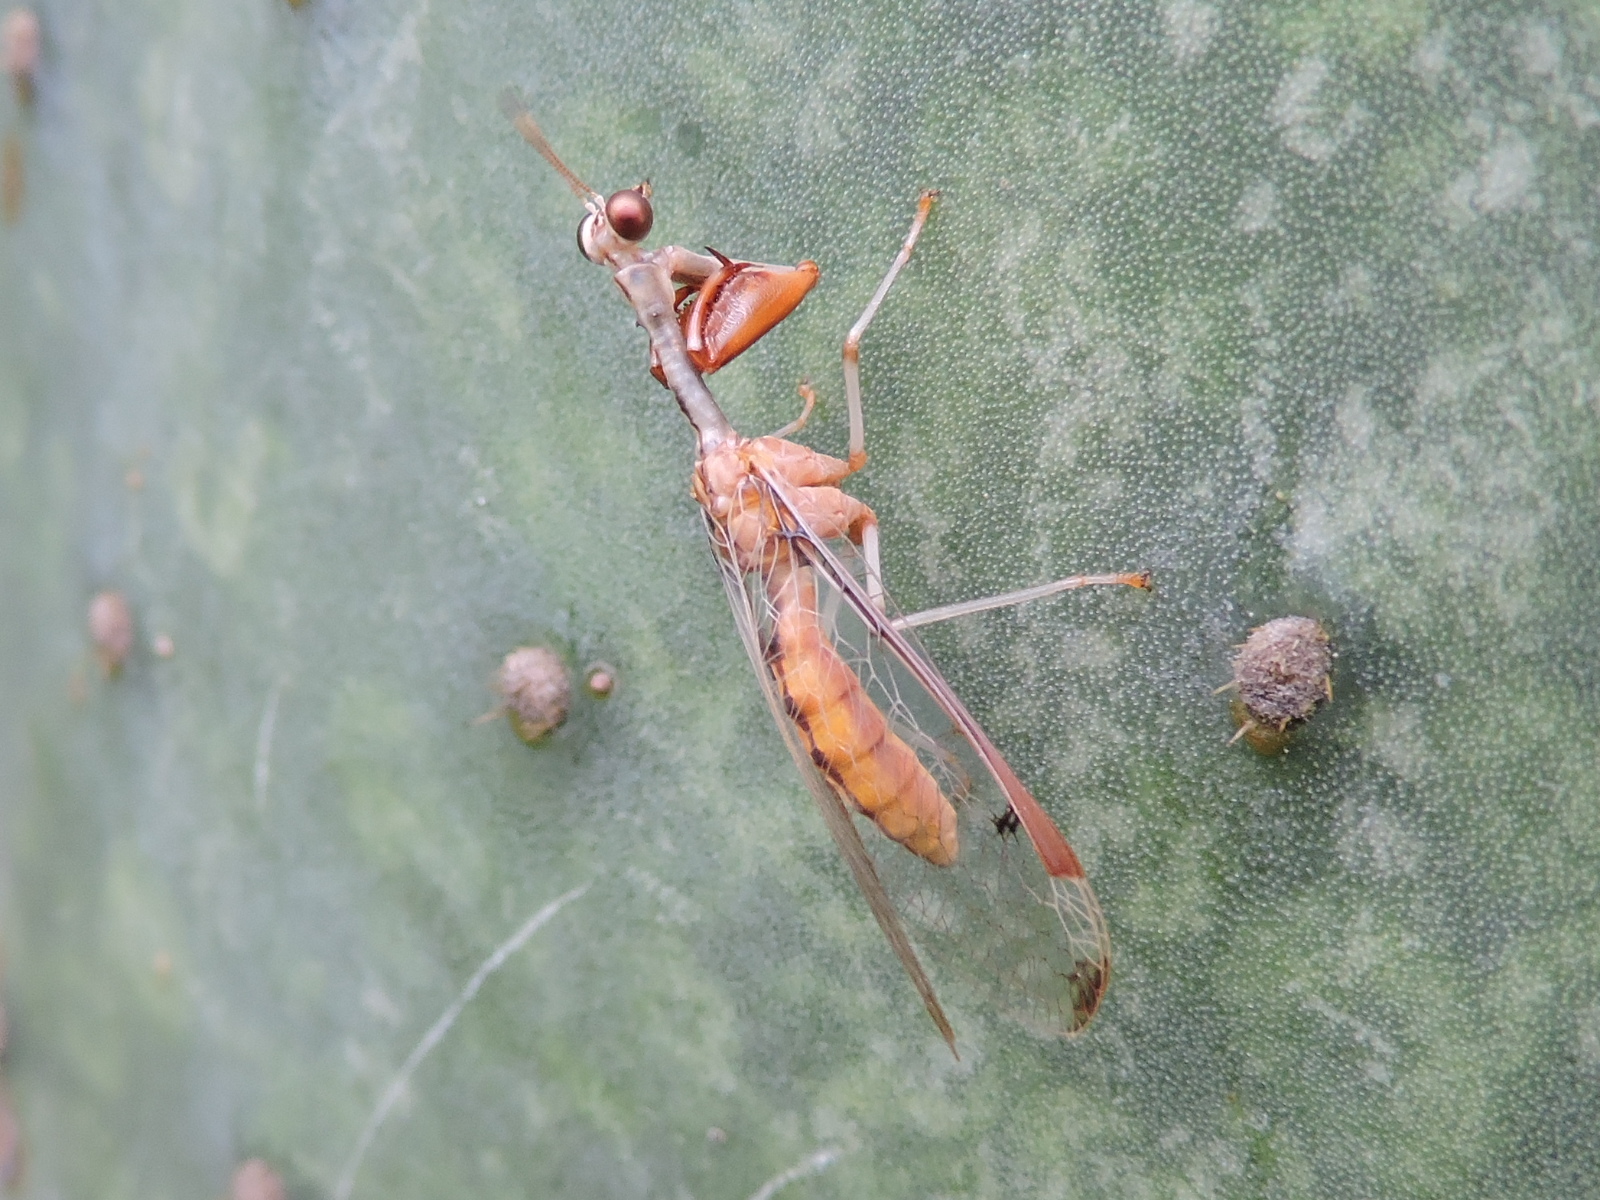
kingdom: Animalia
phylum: Arthropoda
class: Insecta
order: Neuroptera
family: Mantispidae
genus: Dicromantispa
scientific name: Dicromantispa interrupta
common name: Four-spotted mantidfly
